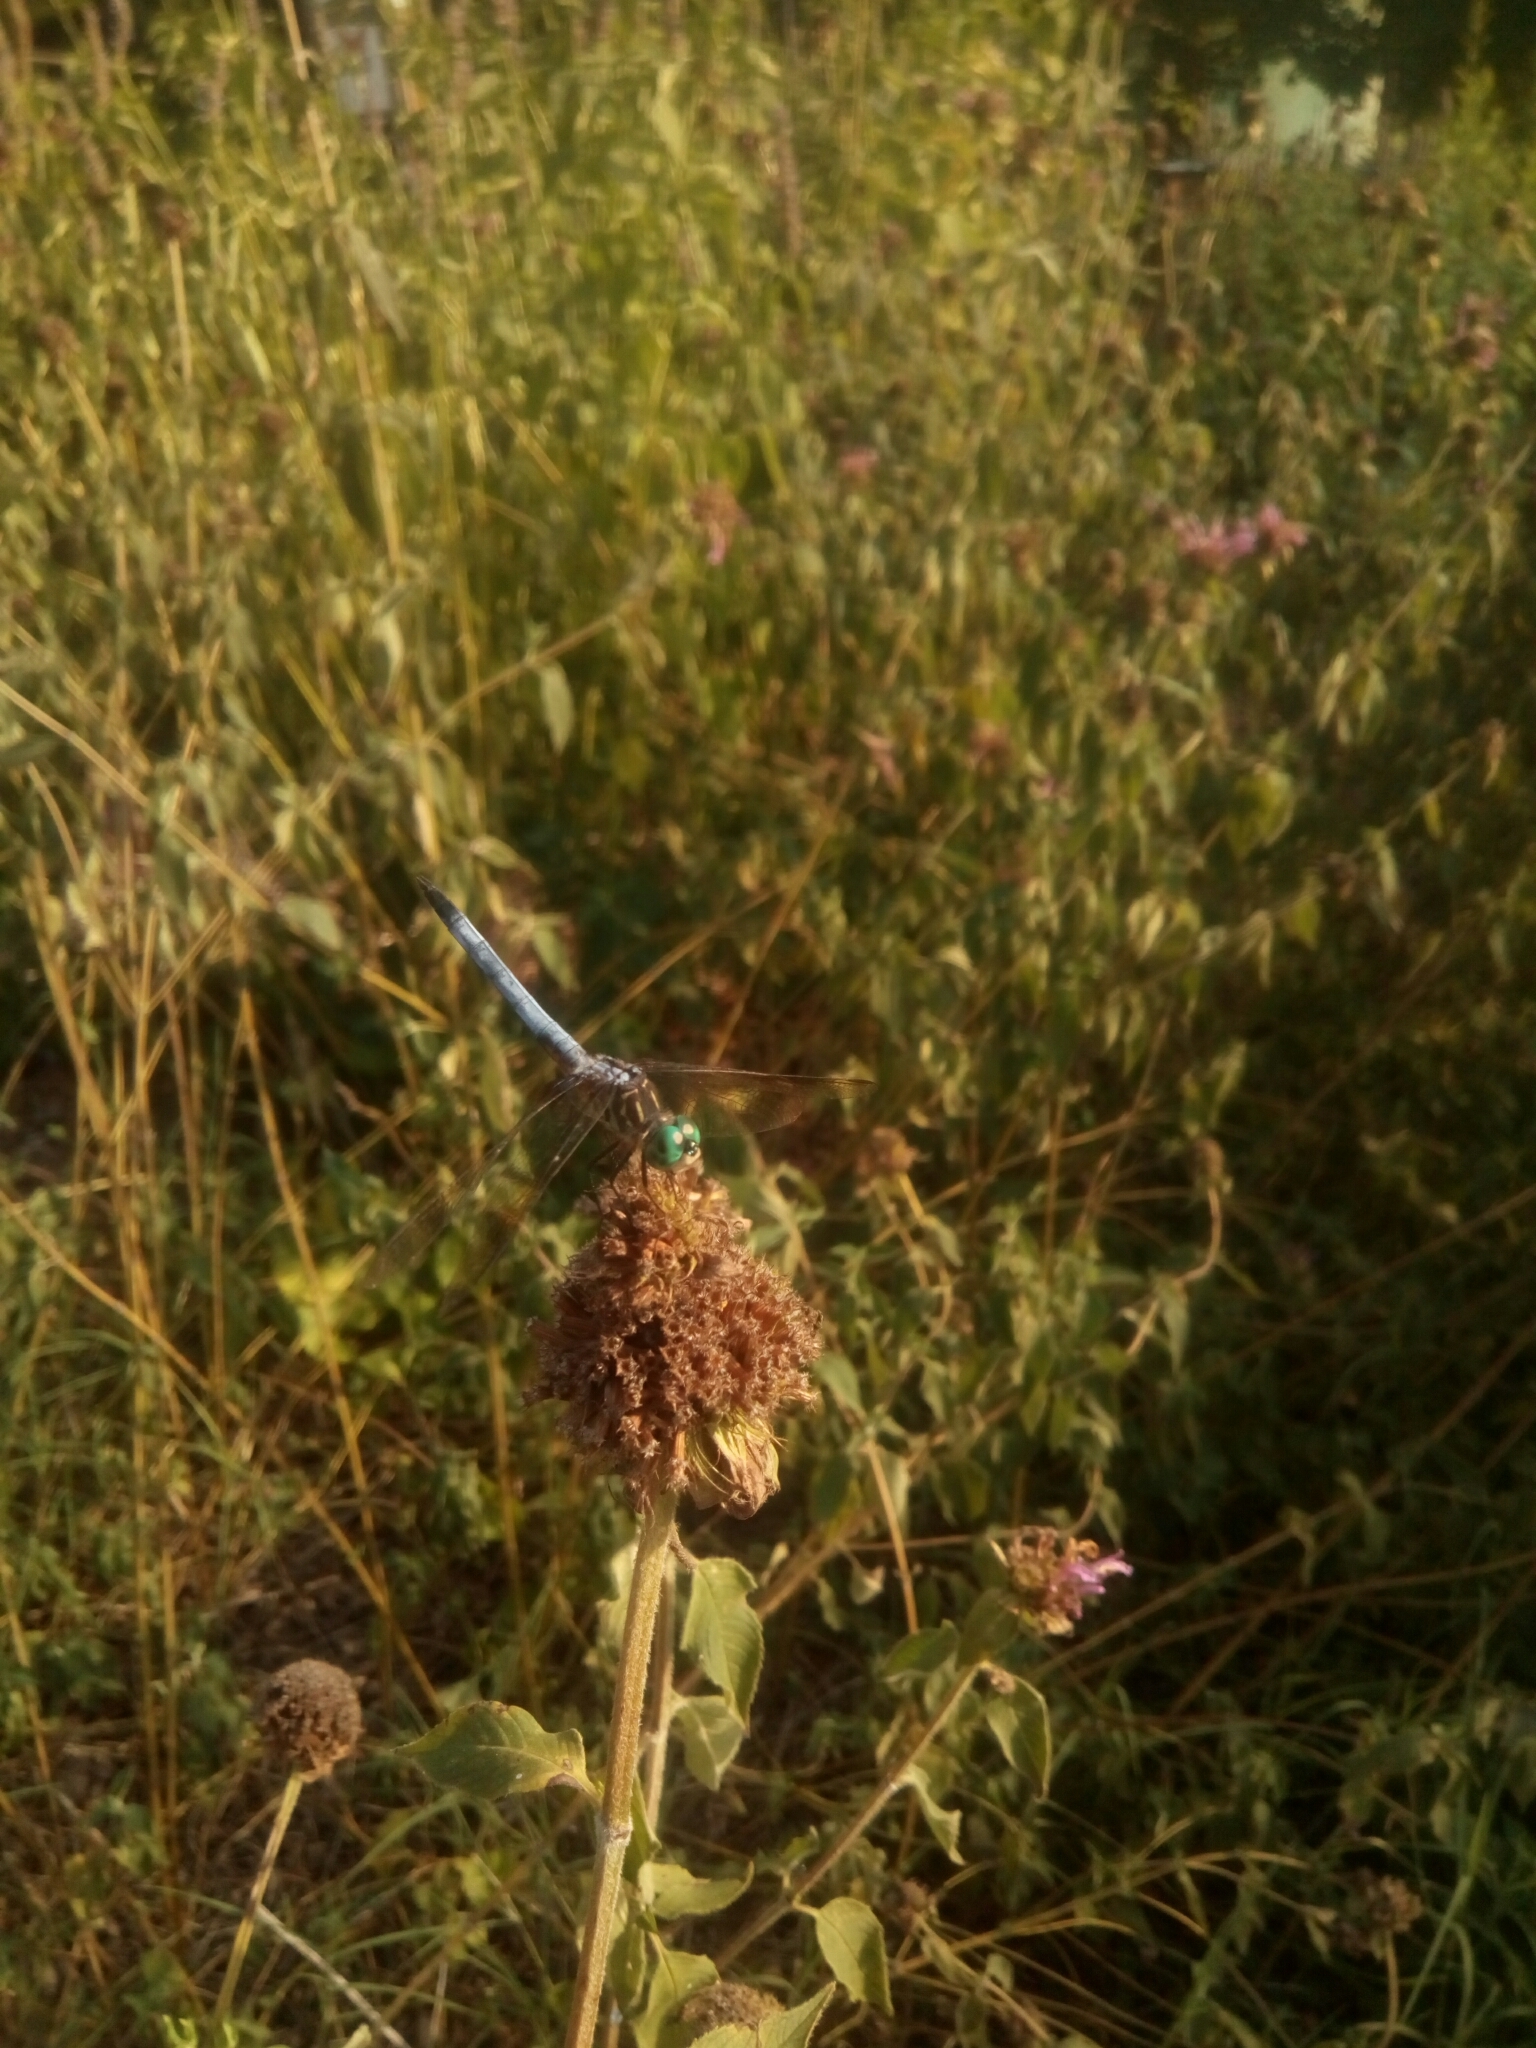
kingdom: Animalia
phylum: Arthropoda
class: Insecta
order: Odonata
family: Libellulidae
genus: Pachydiplax
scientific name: Pachydiplax longipennis
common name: Blue dasher
